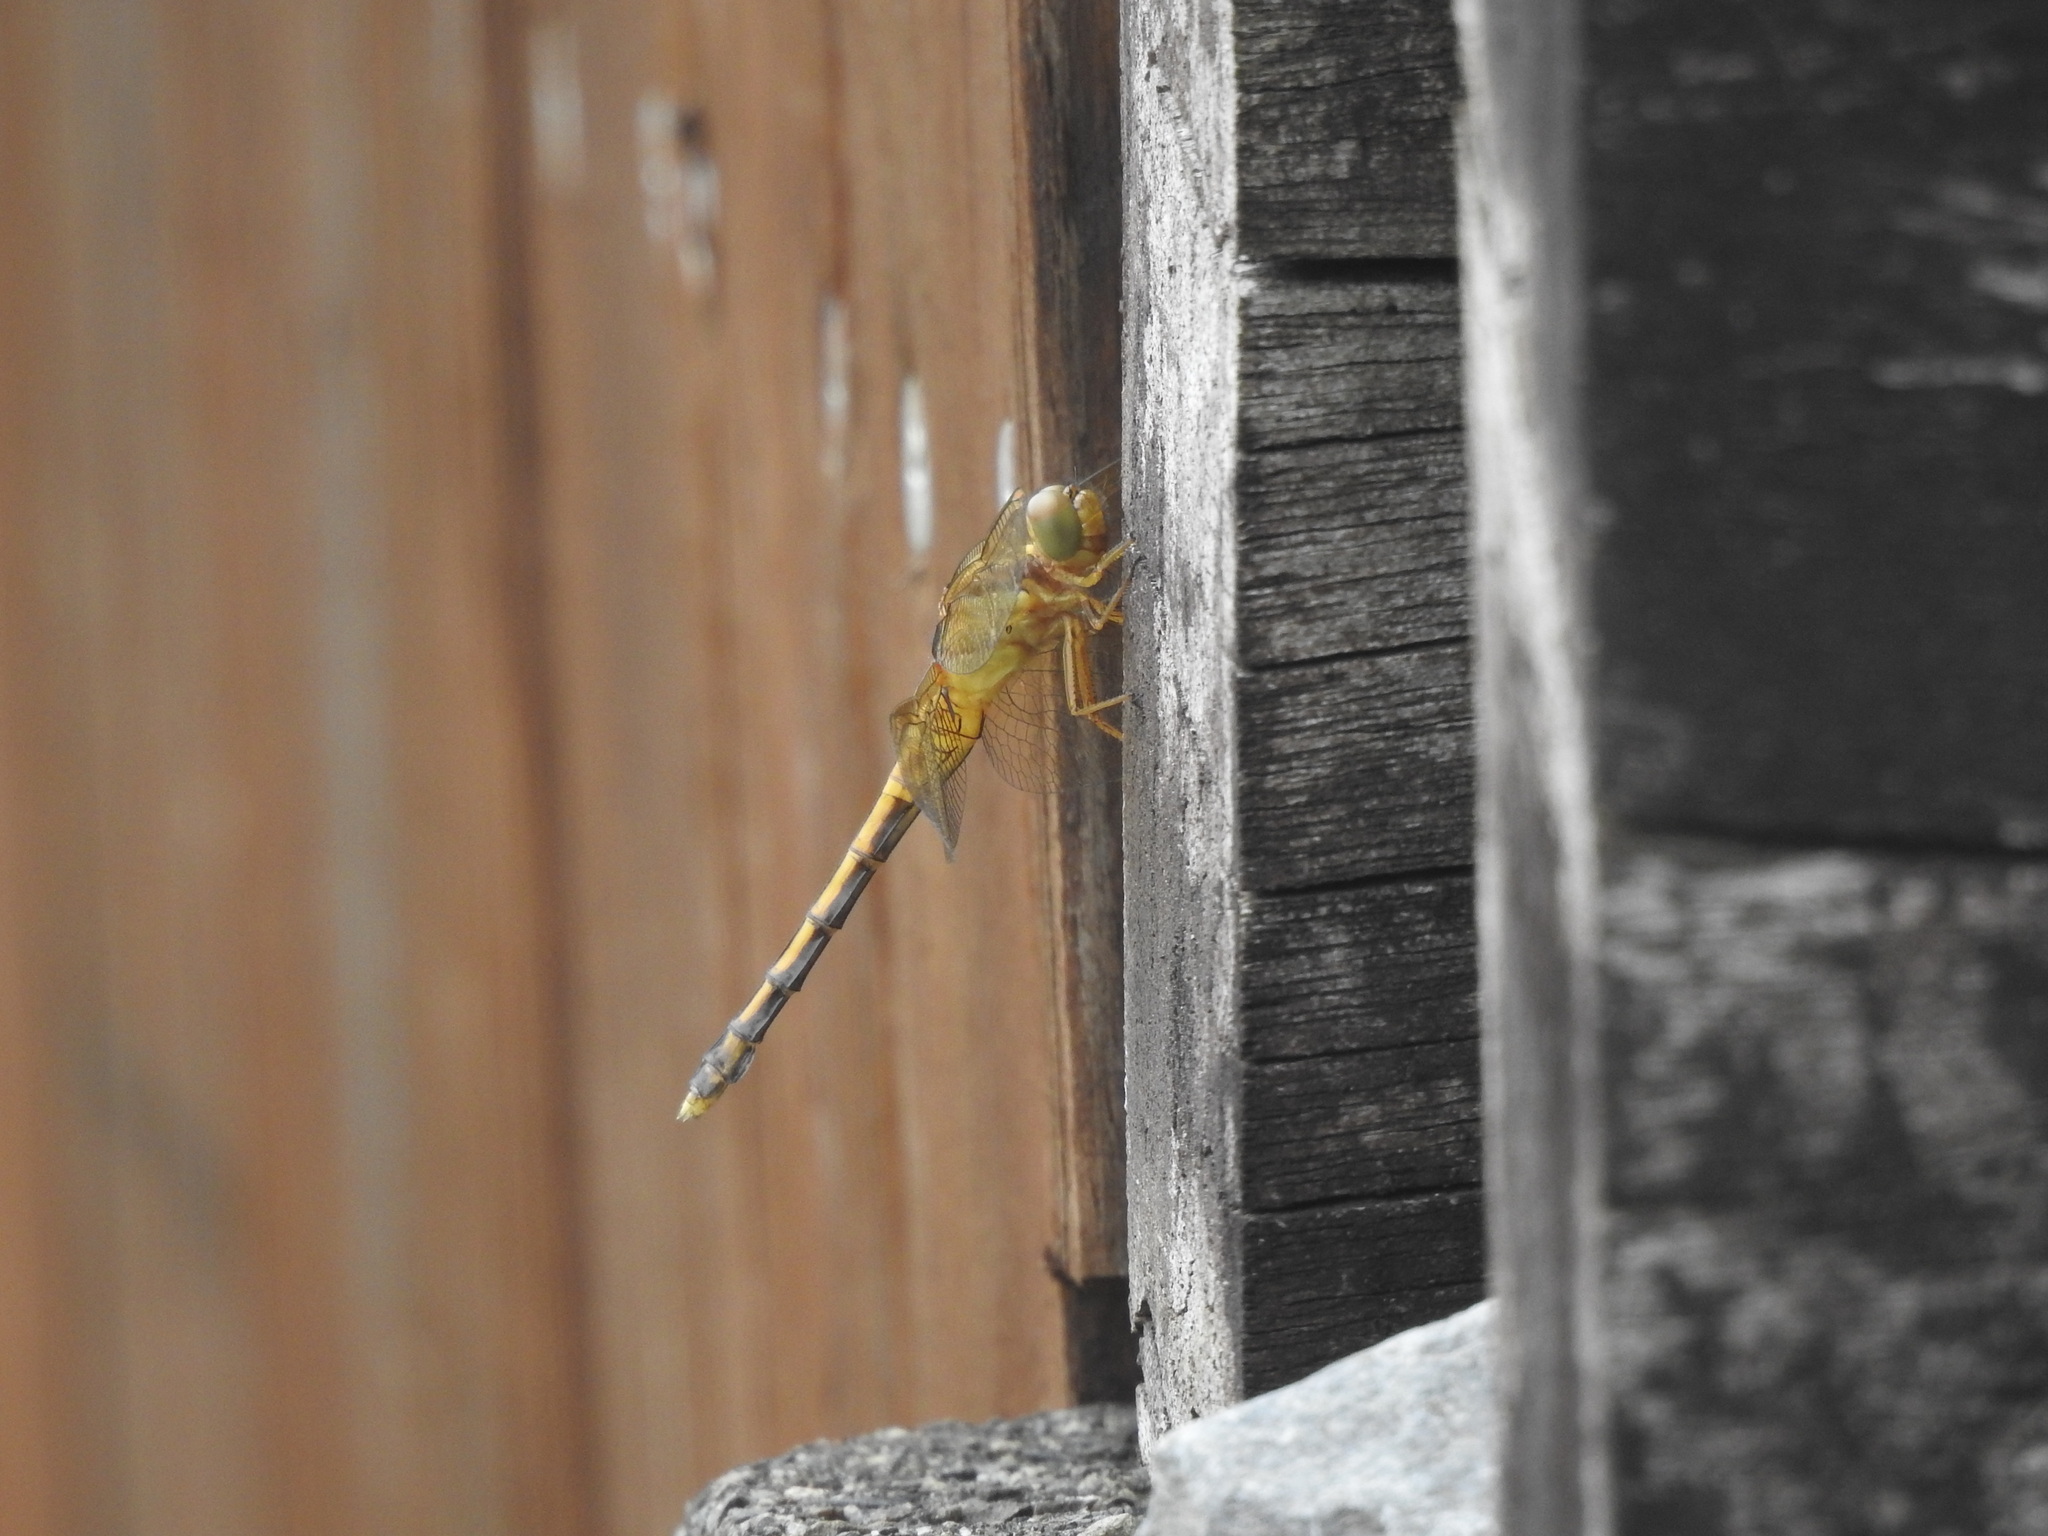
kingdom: Animalia
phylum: Arthropoda
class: Insecta
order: Odonata
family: Libellulidae
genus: Orthetrum
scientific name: Orthetrum luzonicum
